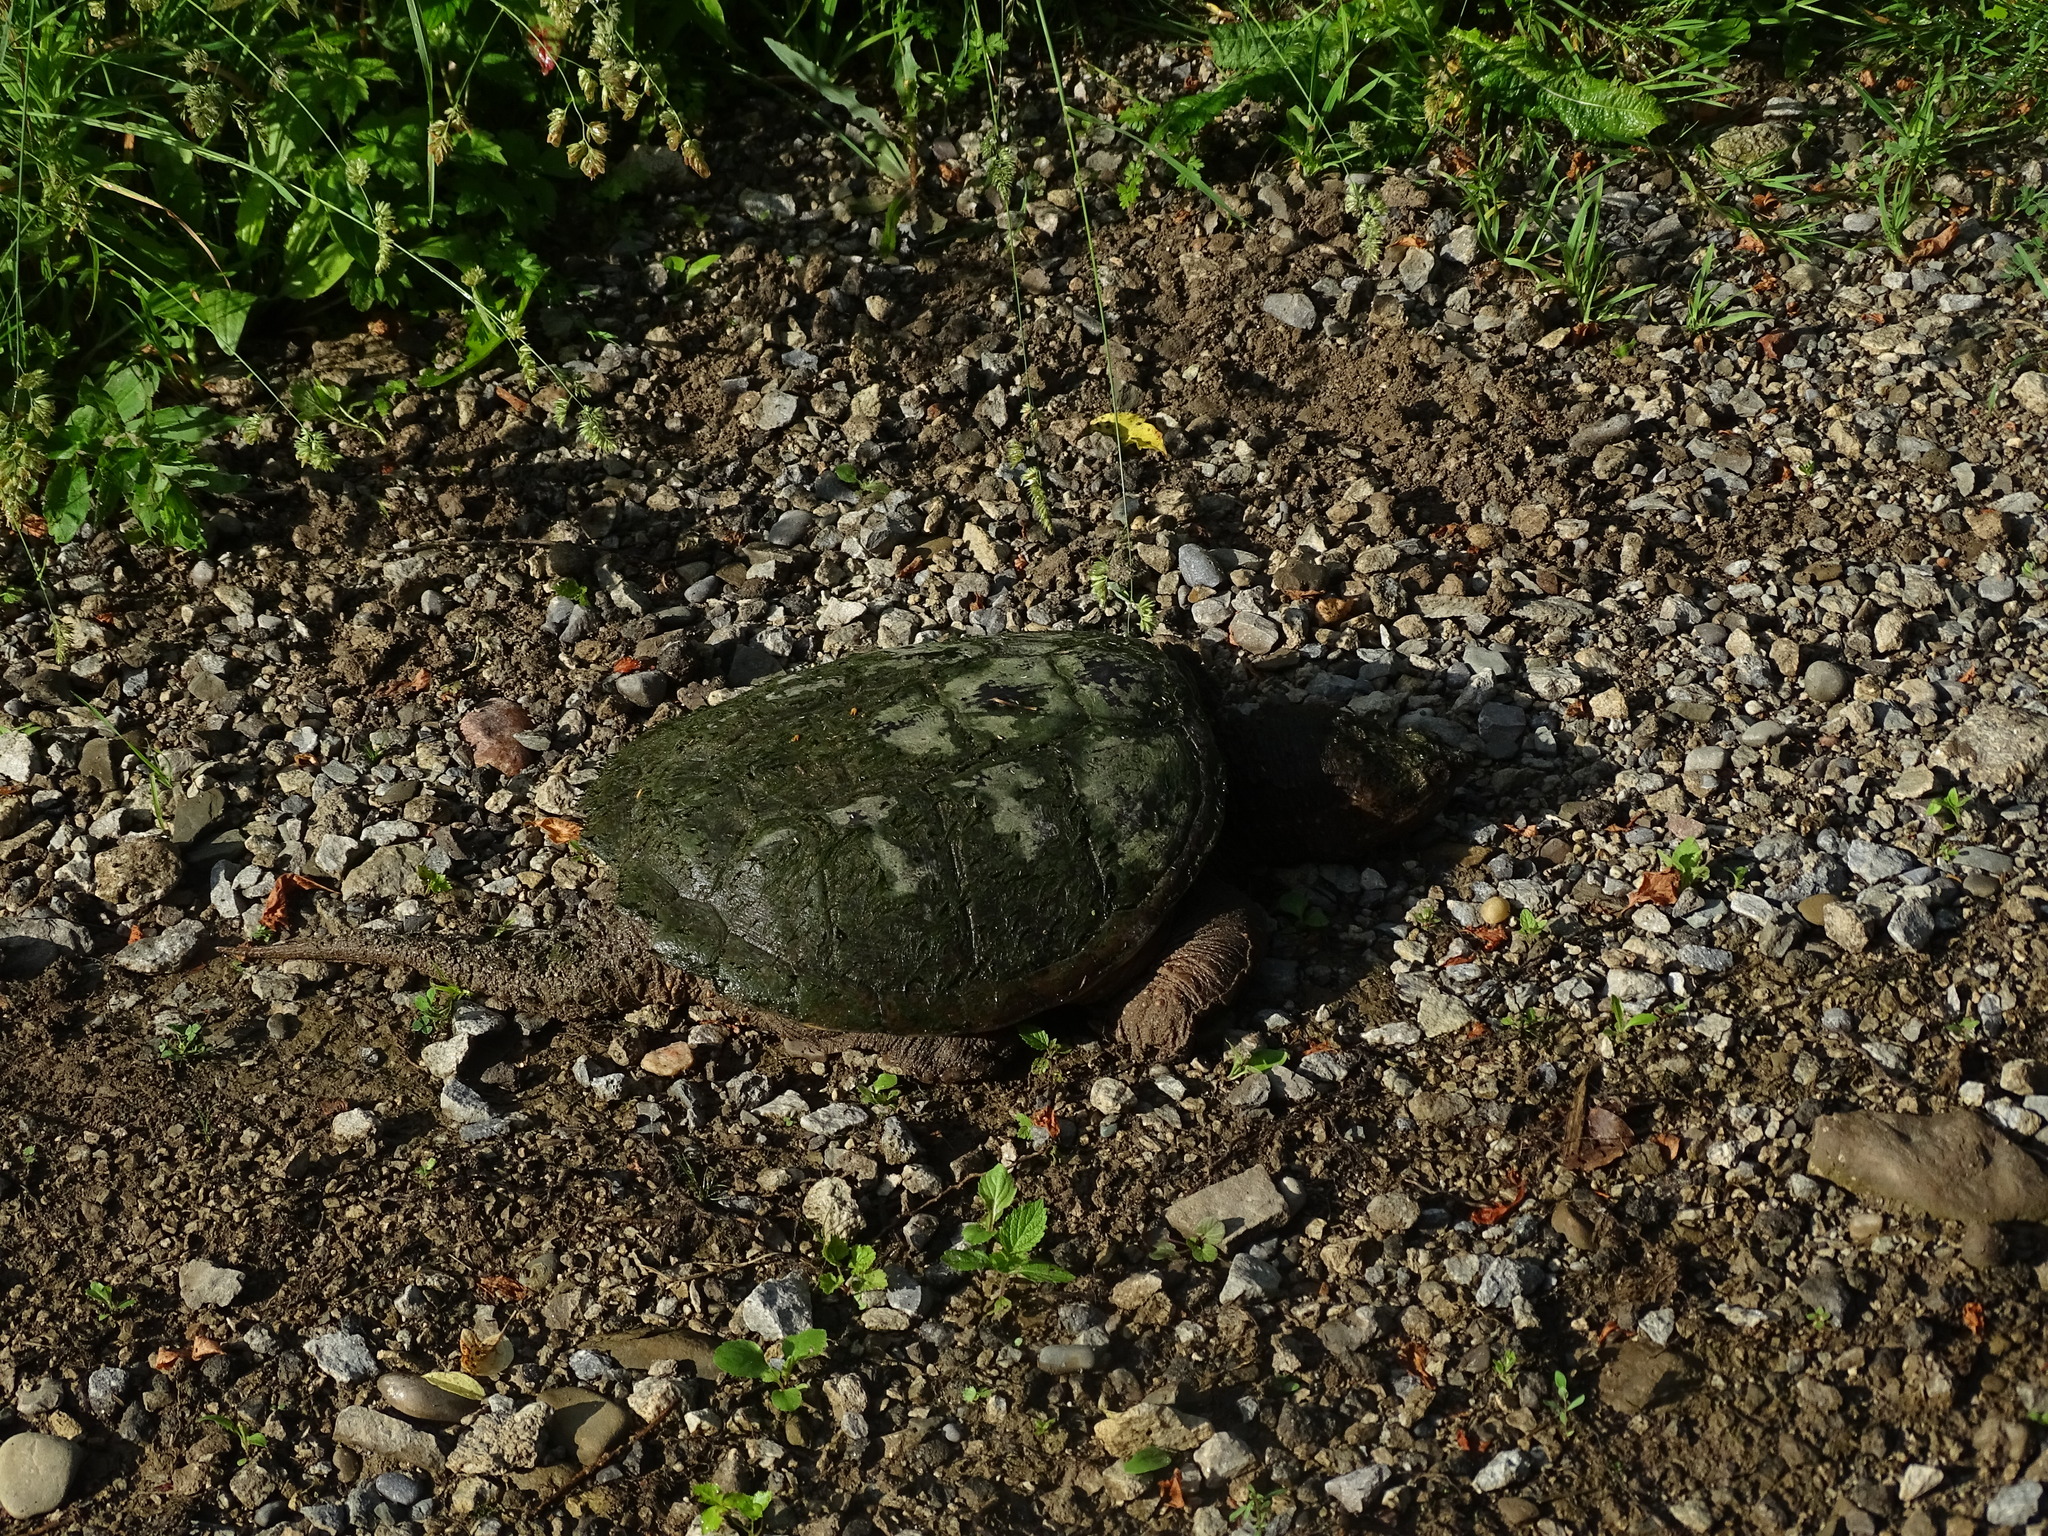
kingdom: Animalia
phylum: Chordata
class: Testudines
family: Chelydridae
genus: Chelydra
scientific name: Chelydra serpentina
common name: Common snapping turtle
